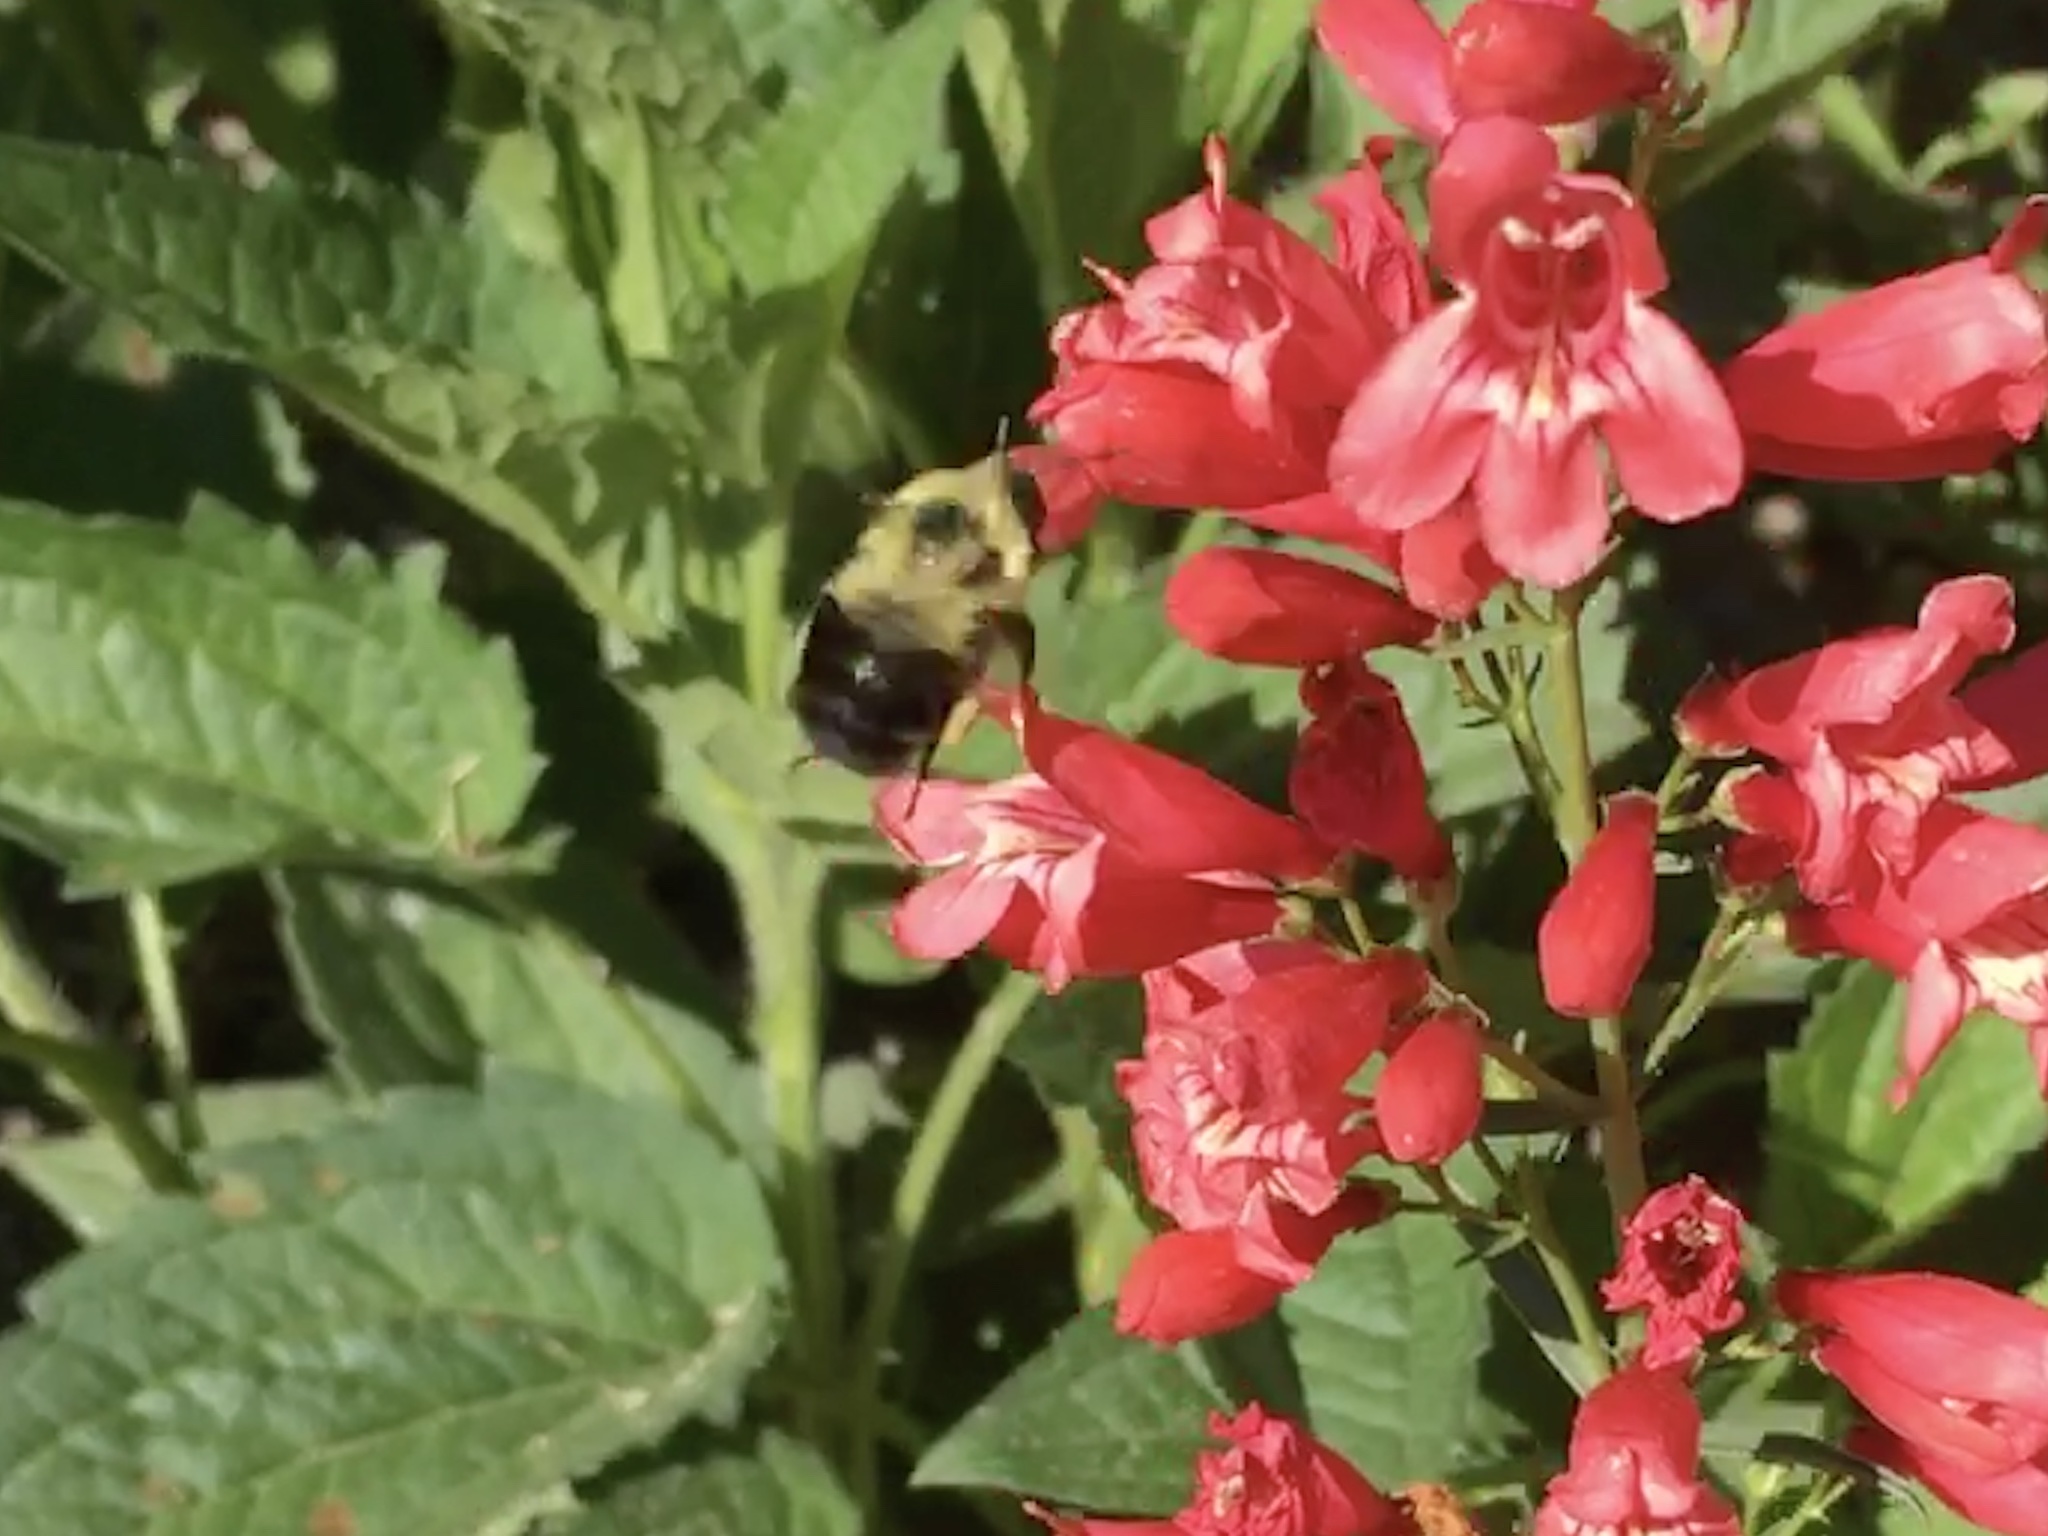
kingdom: Animalia
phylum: Arthropoda
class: Insecta
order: Hymenoptera
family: Apidae
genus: Bombus
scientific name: Bombus bimaculatus
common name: Two-spotted bumble bee
